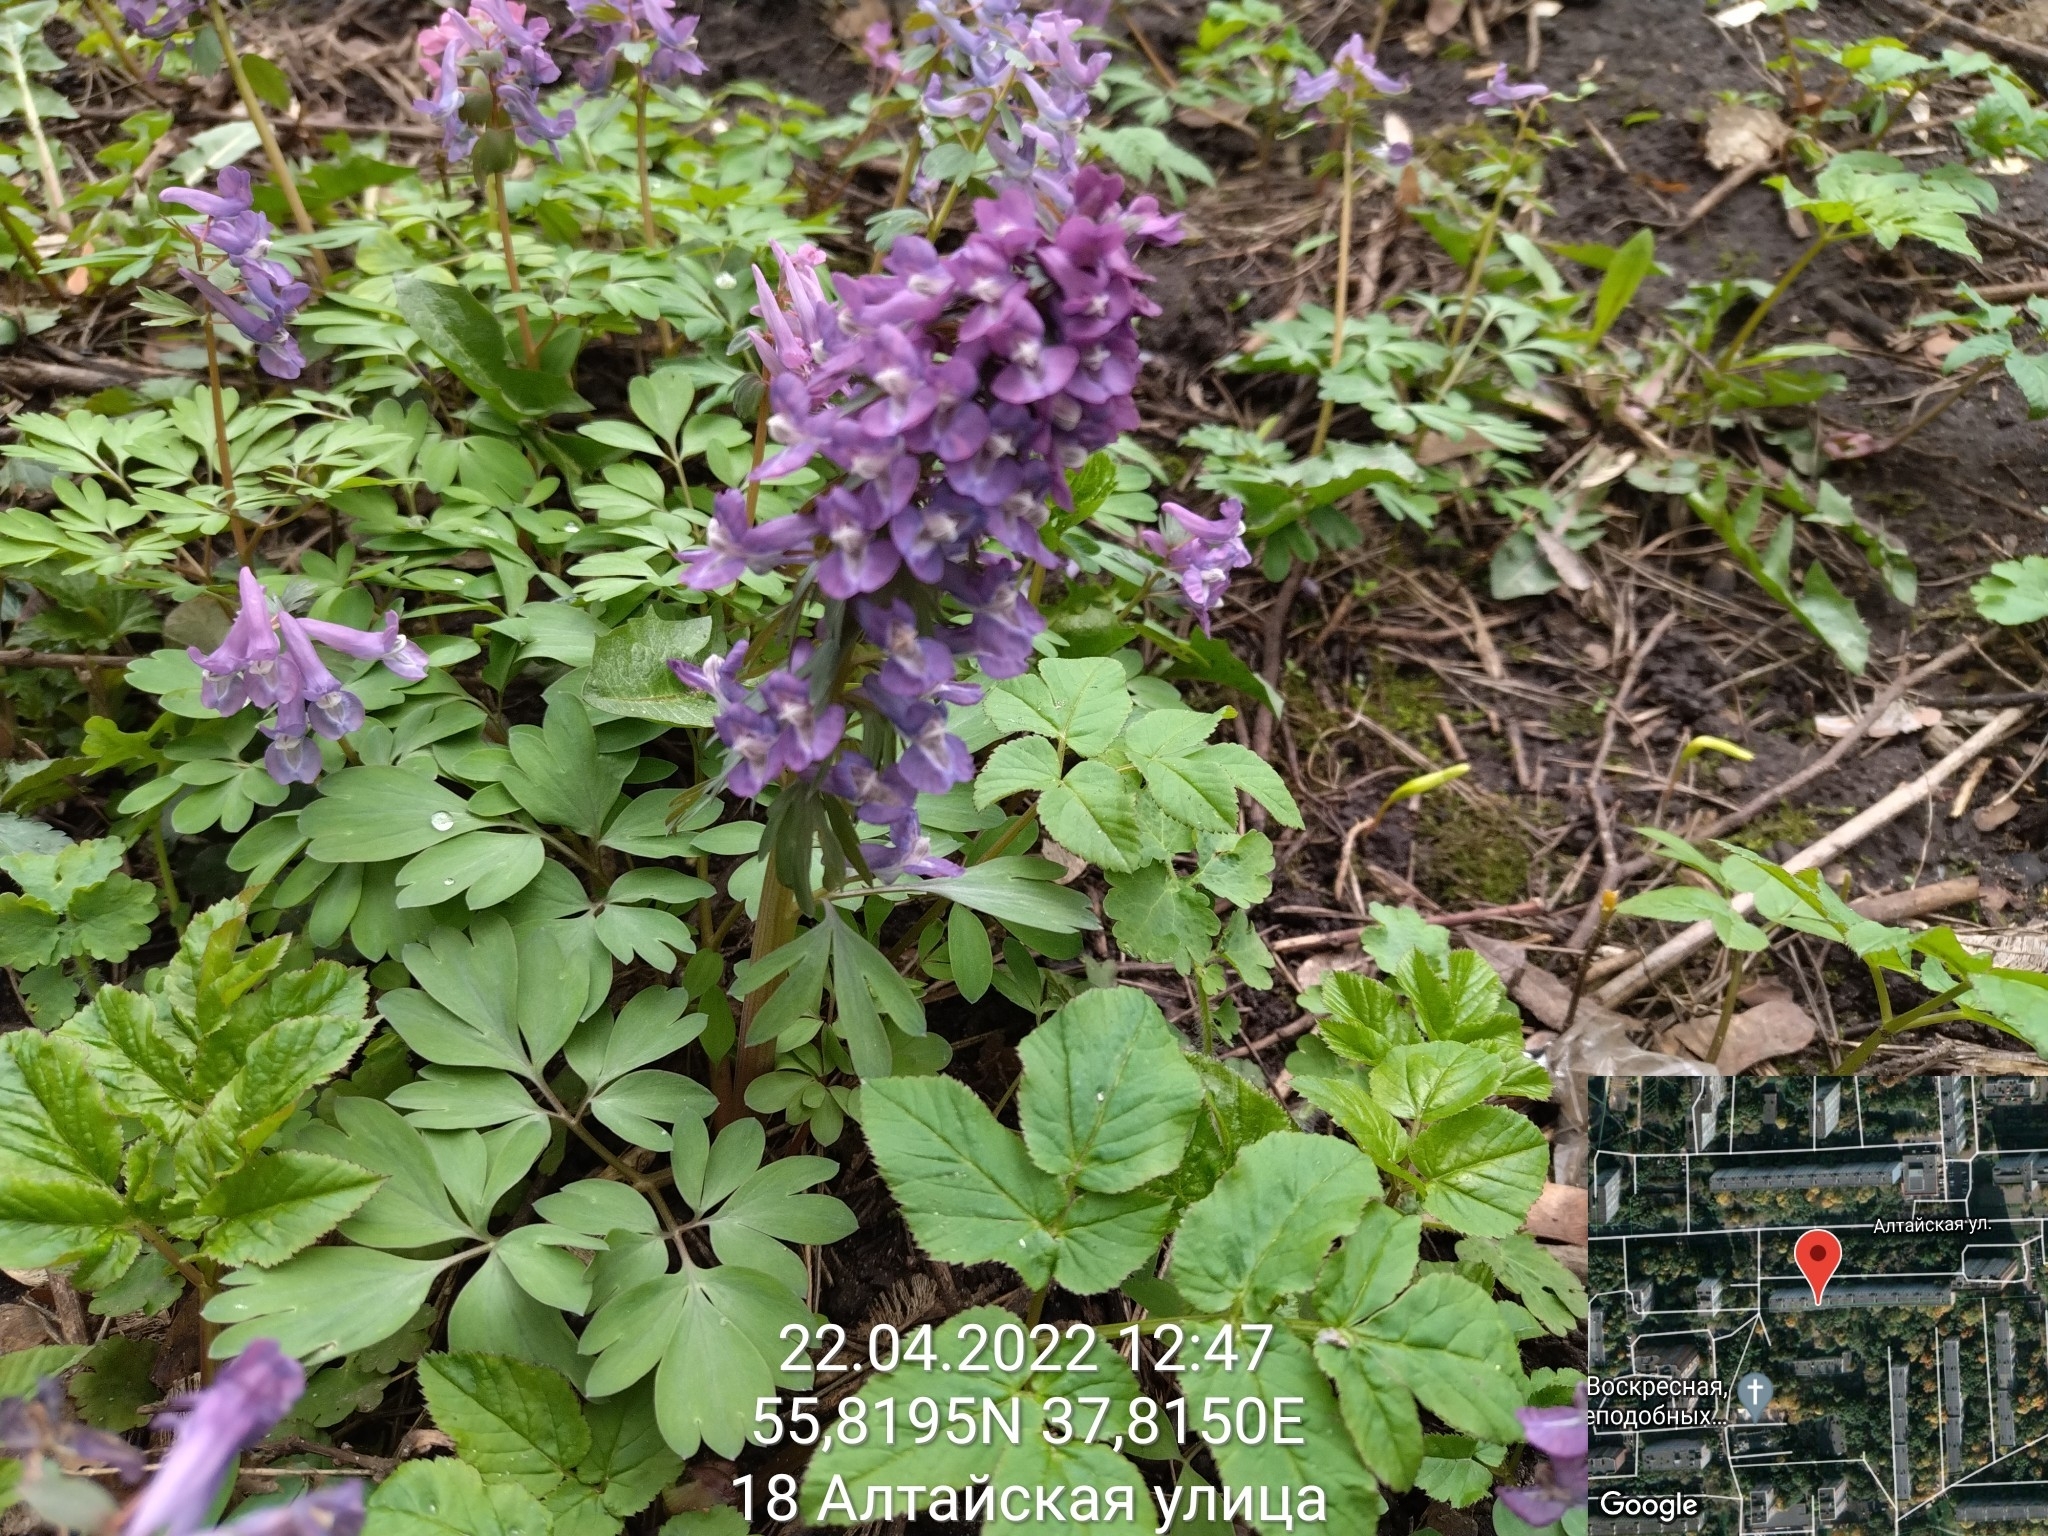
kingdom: Plantae
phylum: Tracheophyta
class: Magnoliopsida
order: Ranunculales
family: Papaveraceae
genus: Corydalis
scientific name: Corydalis solida
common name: Bird-in-a-bush
